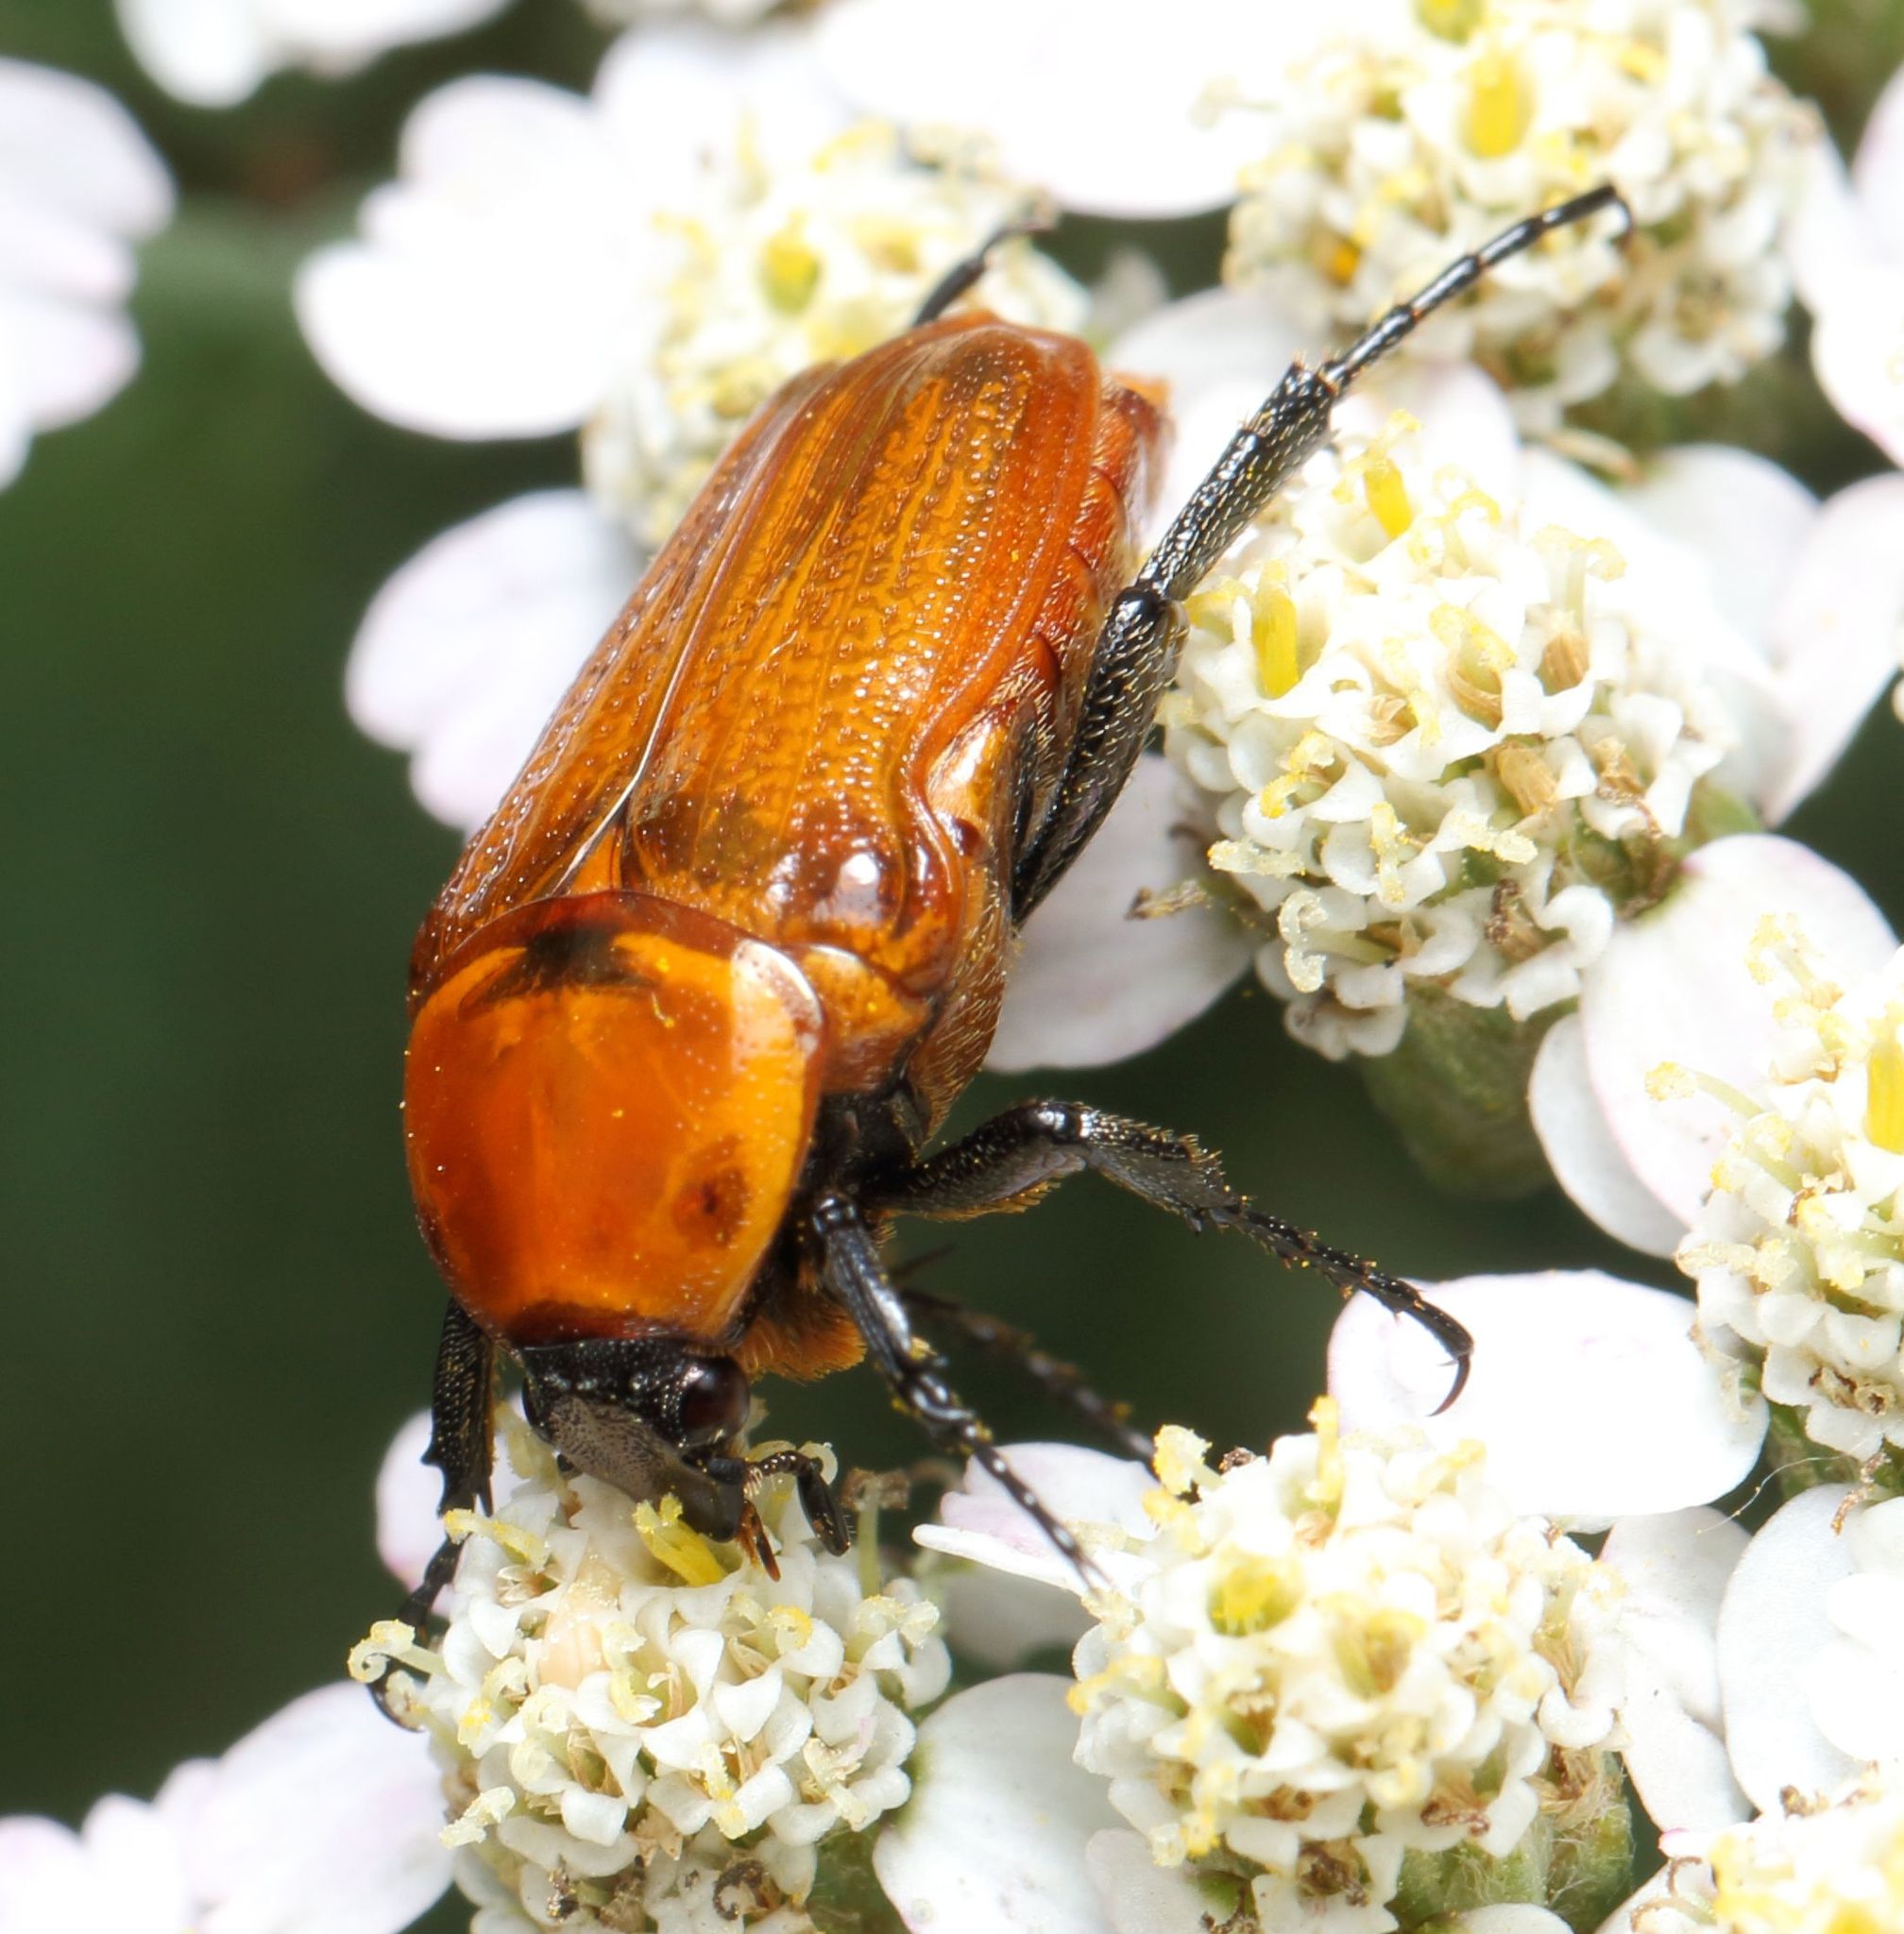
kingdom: Animalia
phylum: Arthropoda
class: Insecta
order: Coleoptera
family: Scarabaeidae
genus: Leucocelis
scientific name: Leucocelis rubra
